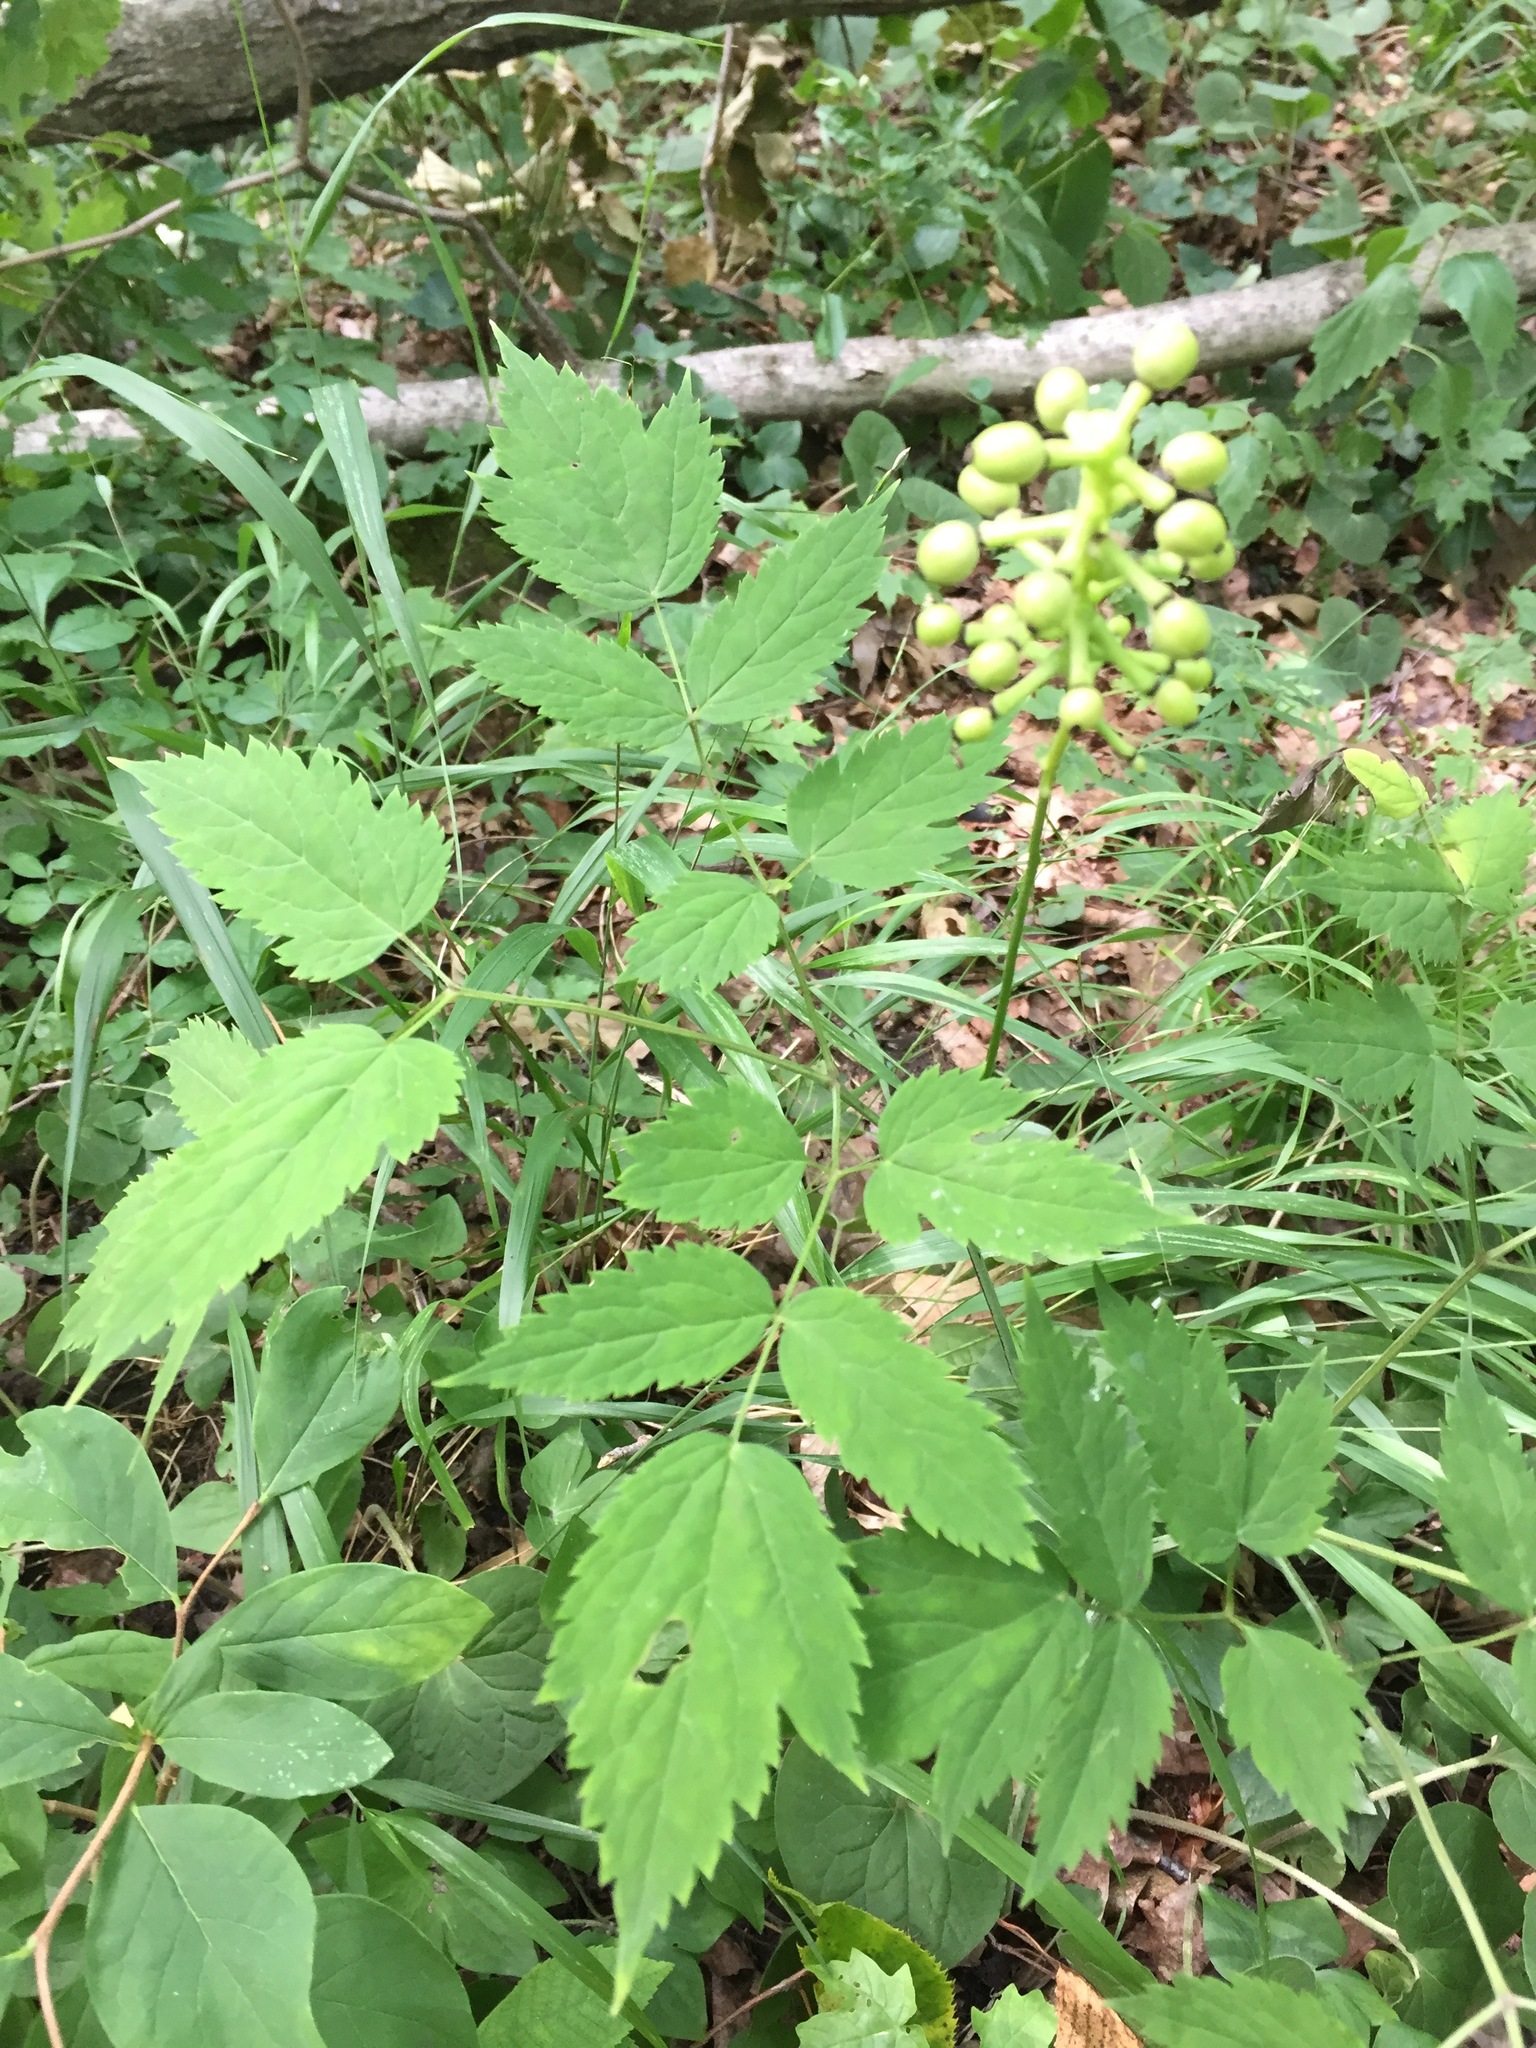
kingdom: Plantae
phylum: Tracheophyta
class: Magnoliopsida
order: Ranunculales
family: Ranunculaceae
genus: Actaea
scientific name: Actaea pachypoda
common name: Doll's-eyes
